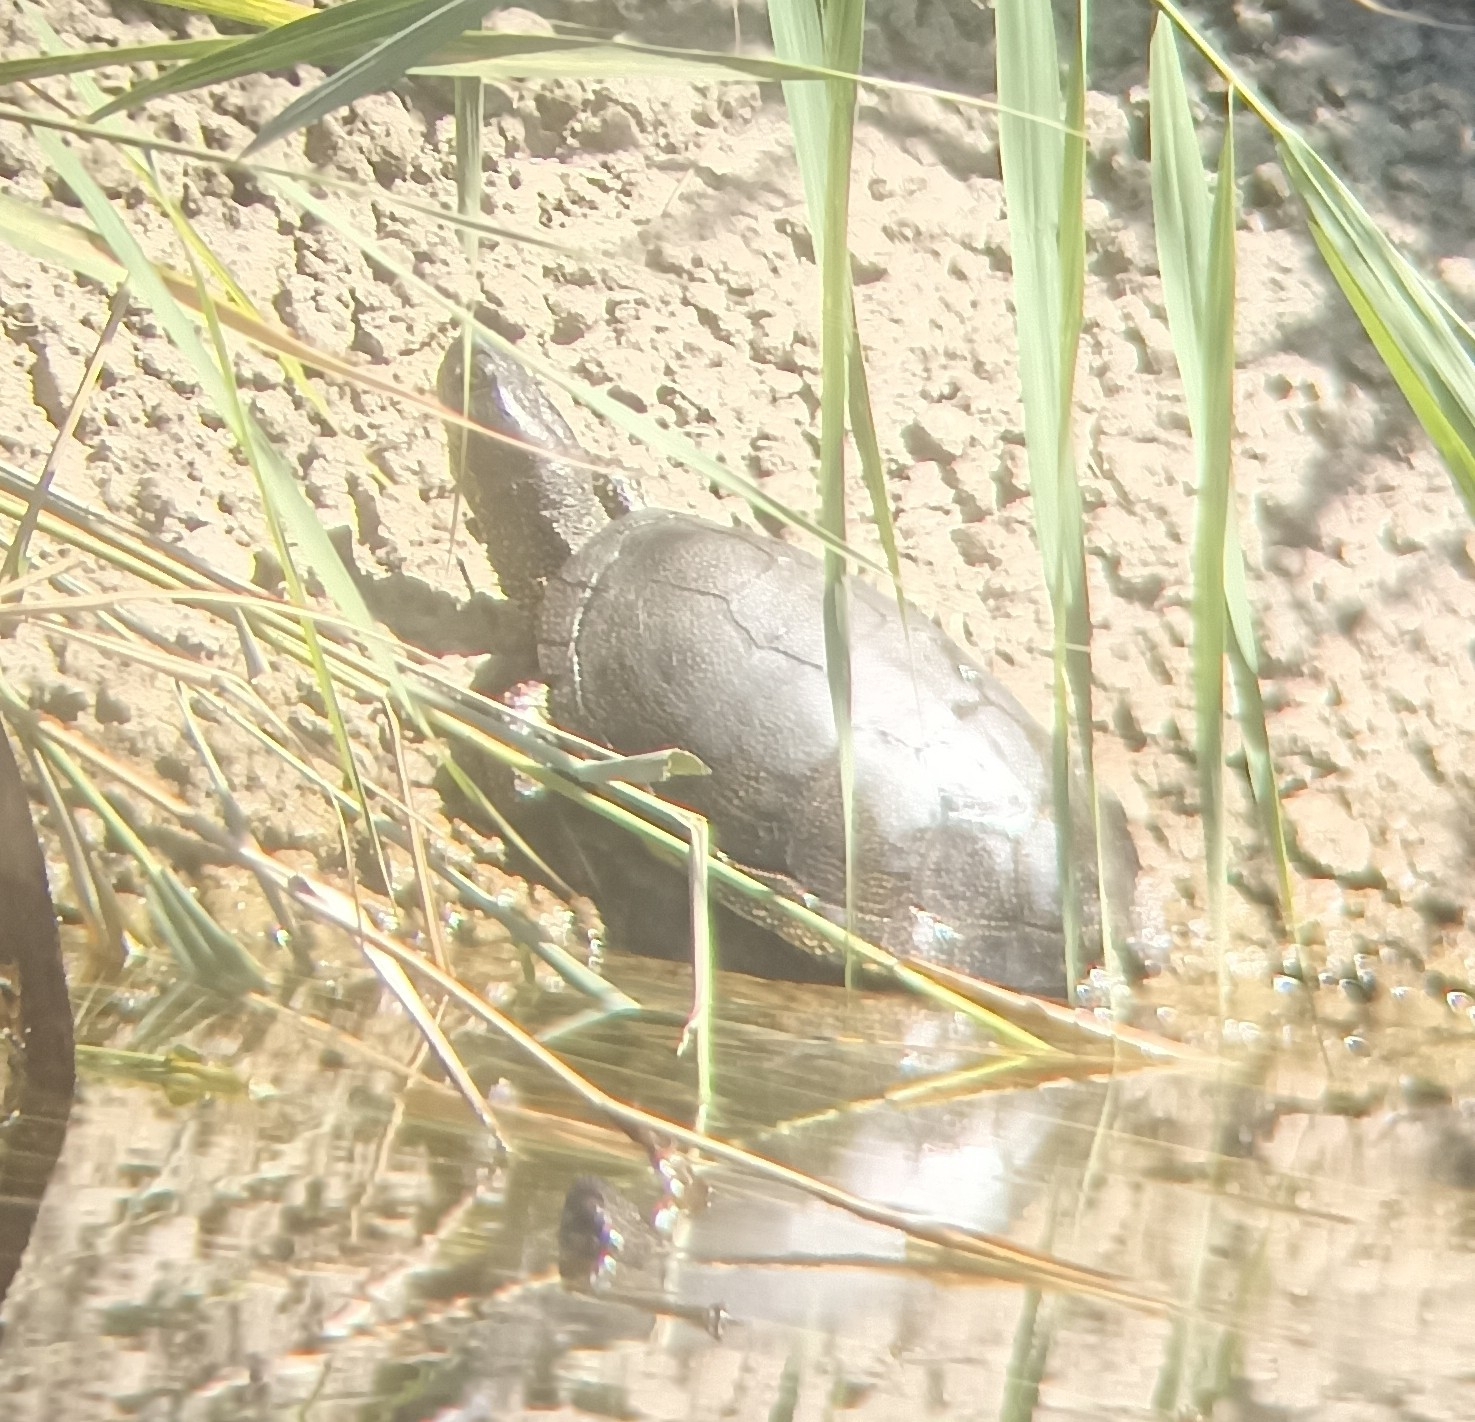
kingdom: Animalia
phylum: Chordata
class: Testudines
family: Emydidae
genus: Emys
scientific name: Emys orbicularis
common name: European pond turtle
